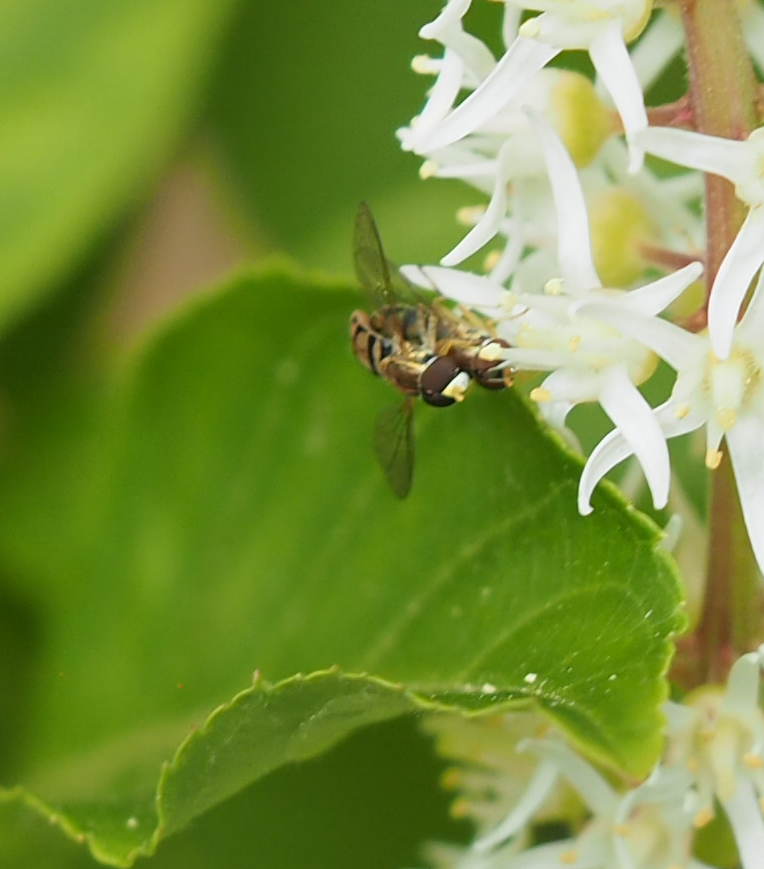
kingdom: Animalia
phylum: Arthropoda
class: Insecta
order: Diptera
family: Syrphidae
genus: Toxomerus
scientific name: Toxomerus marginatus
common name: Syrphid fly
